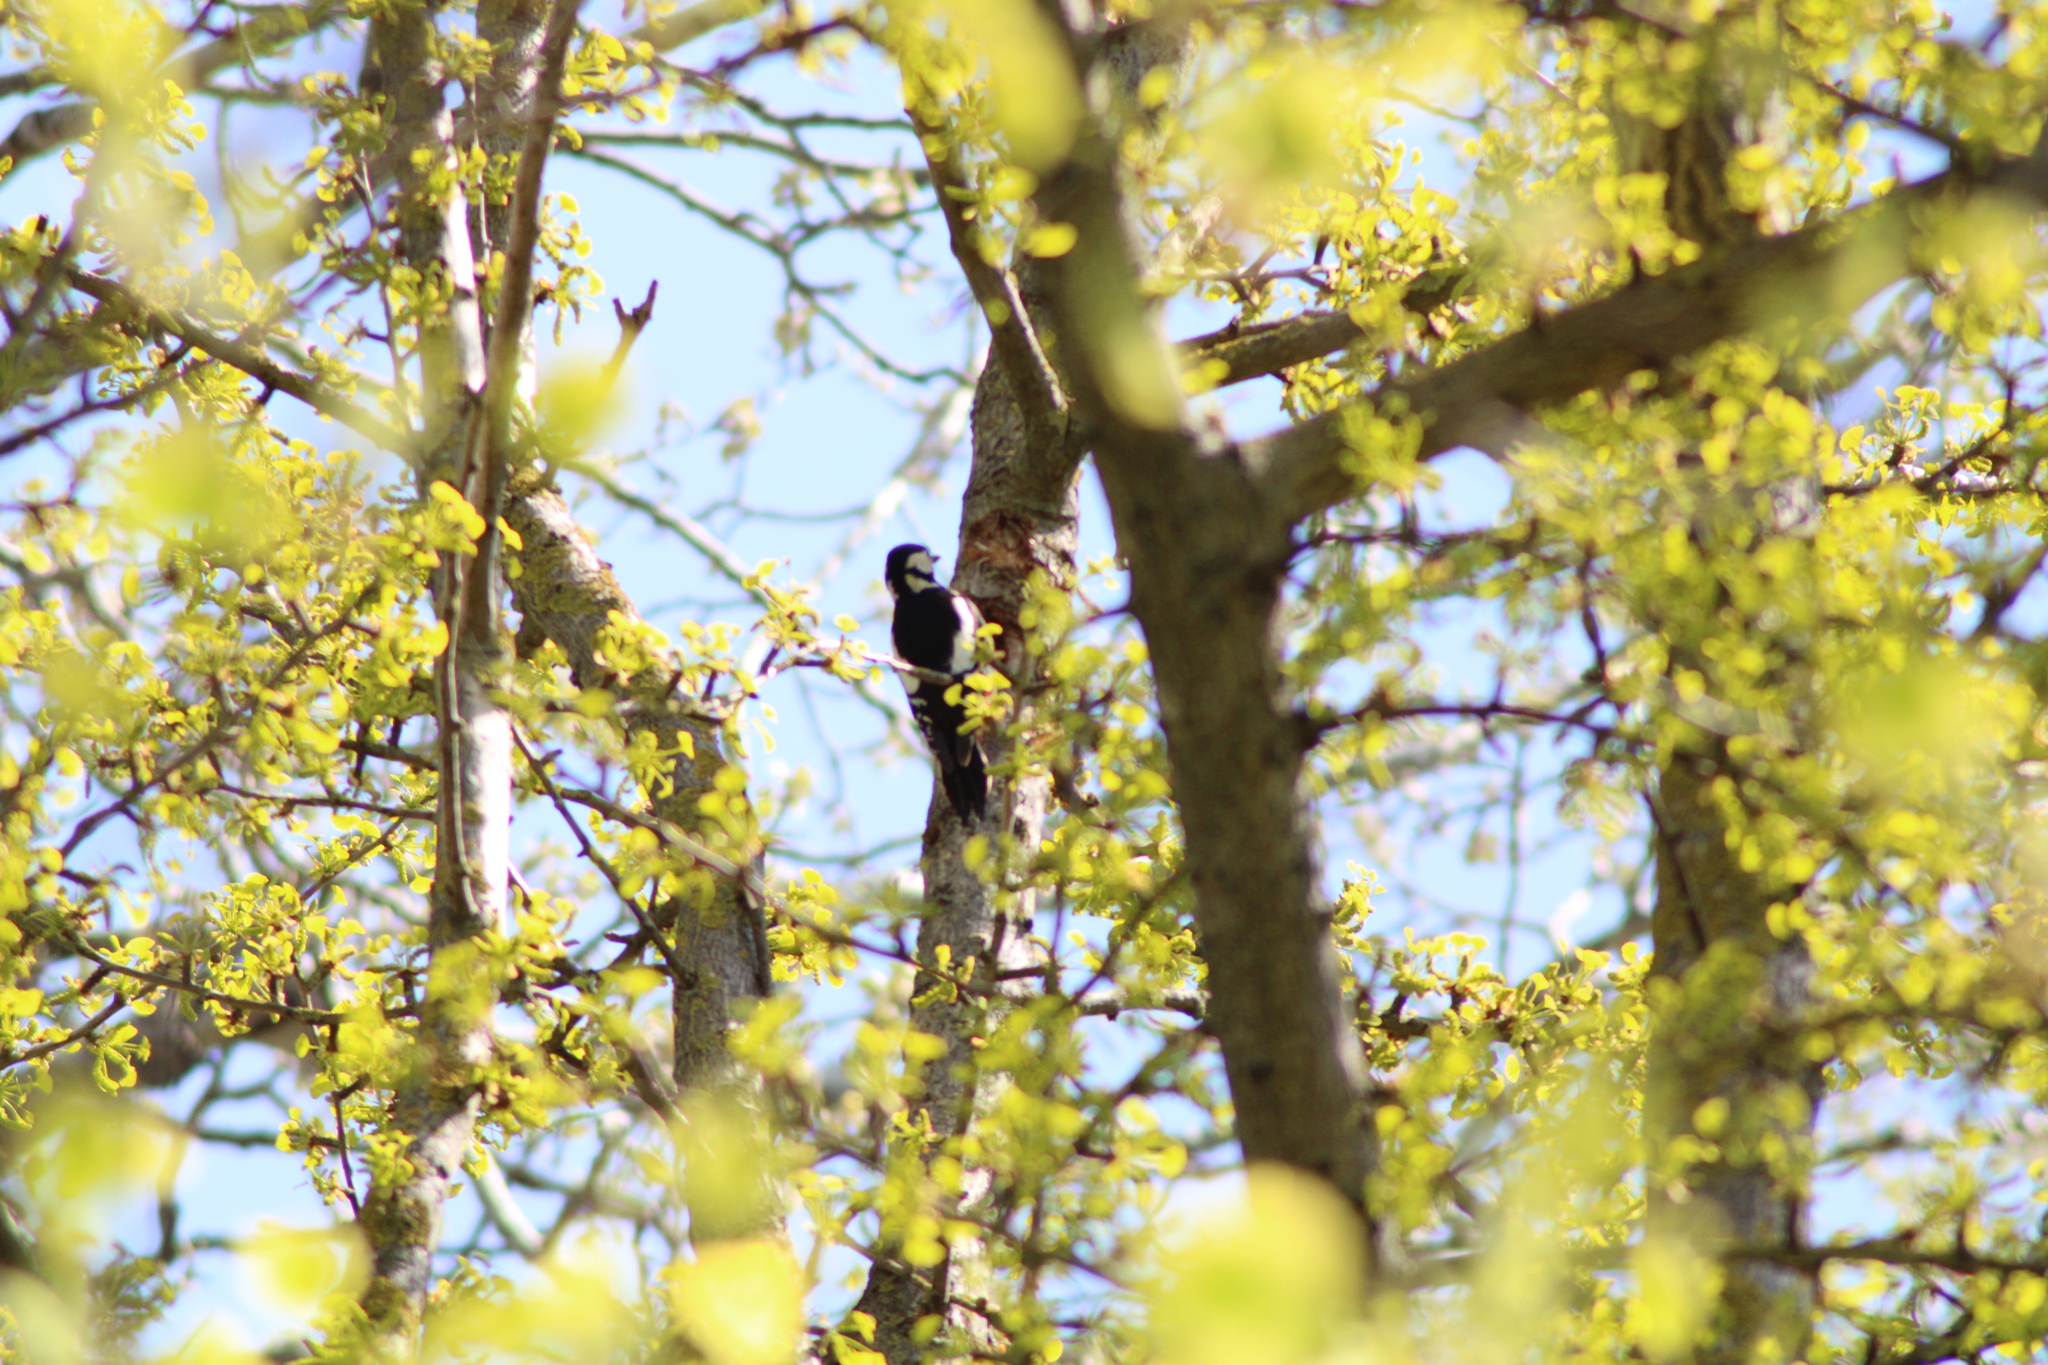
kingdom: Animalia
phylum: Chordata
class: Aves
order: Piciformes
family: Picidae
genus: Dendrocopos
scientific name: Dendrocopos major
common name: Great spotted woodpecker
